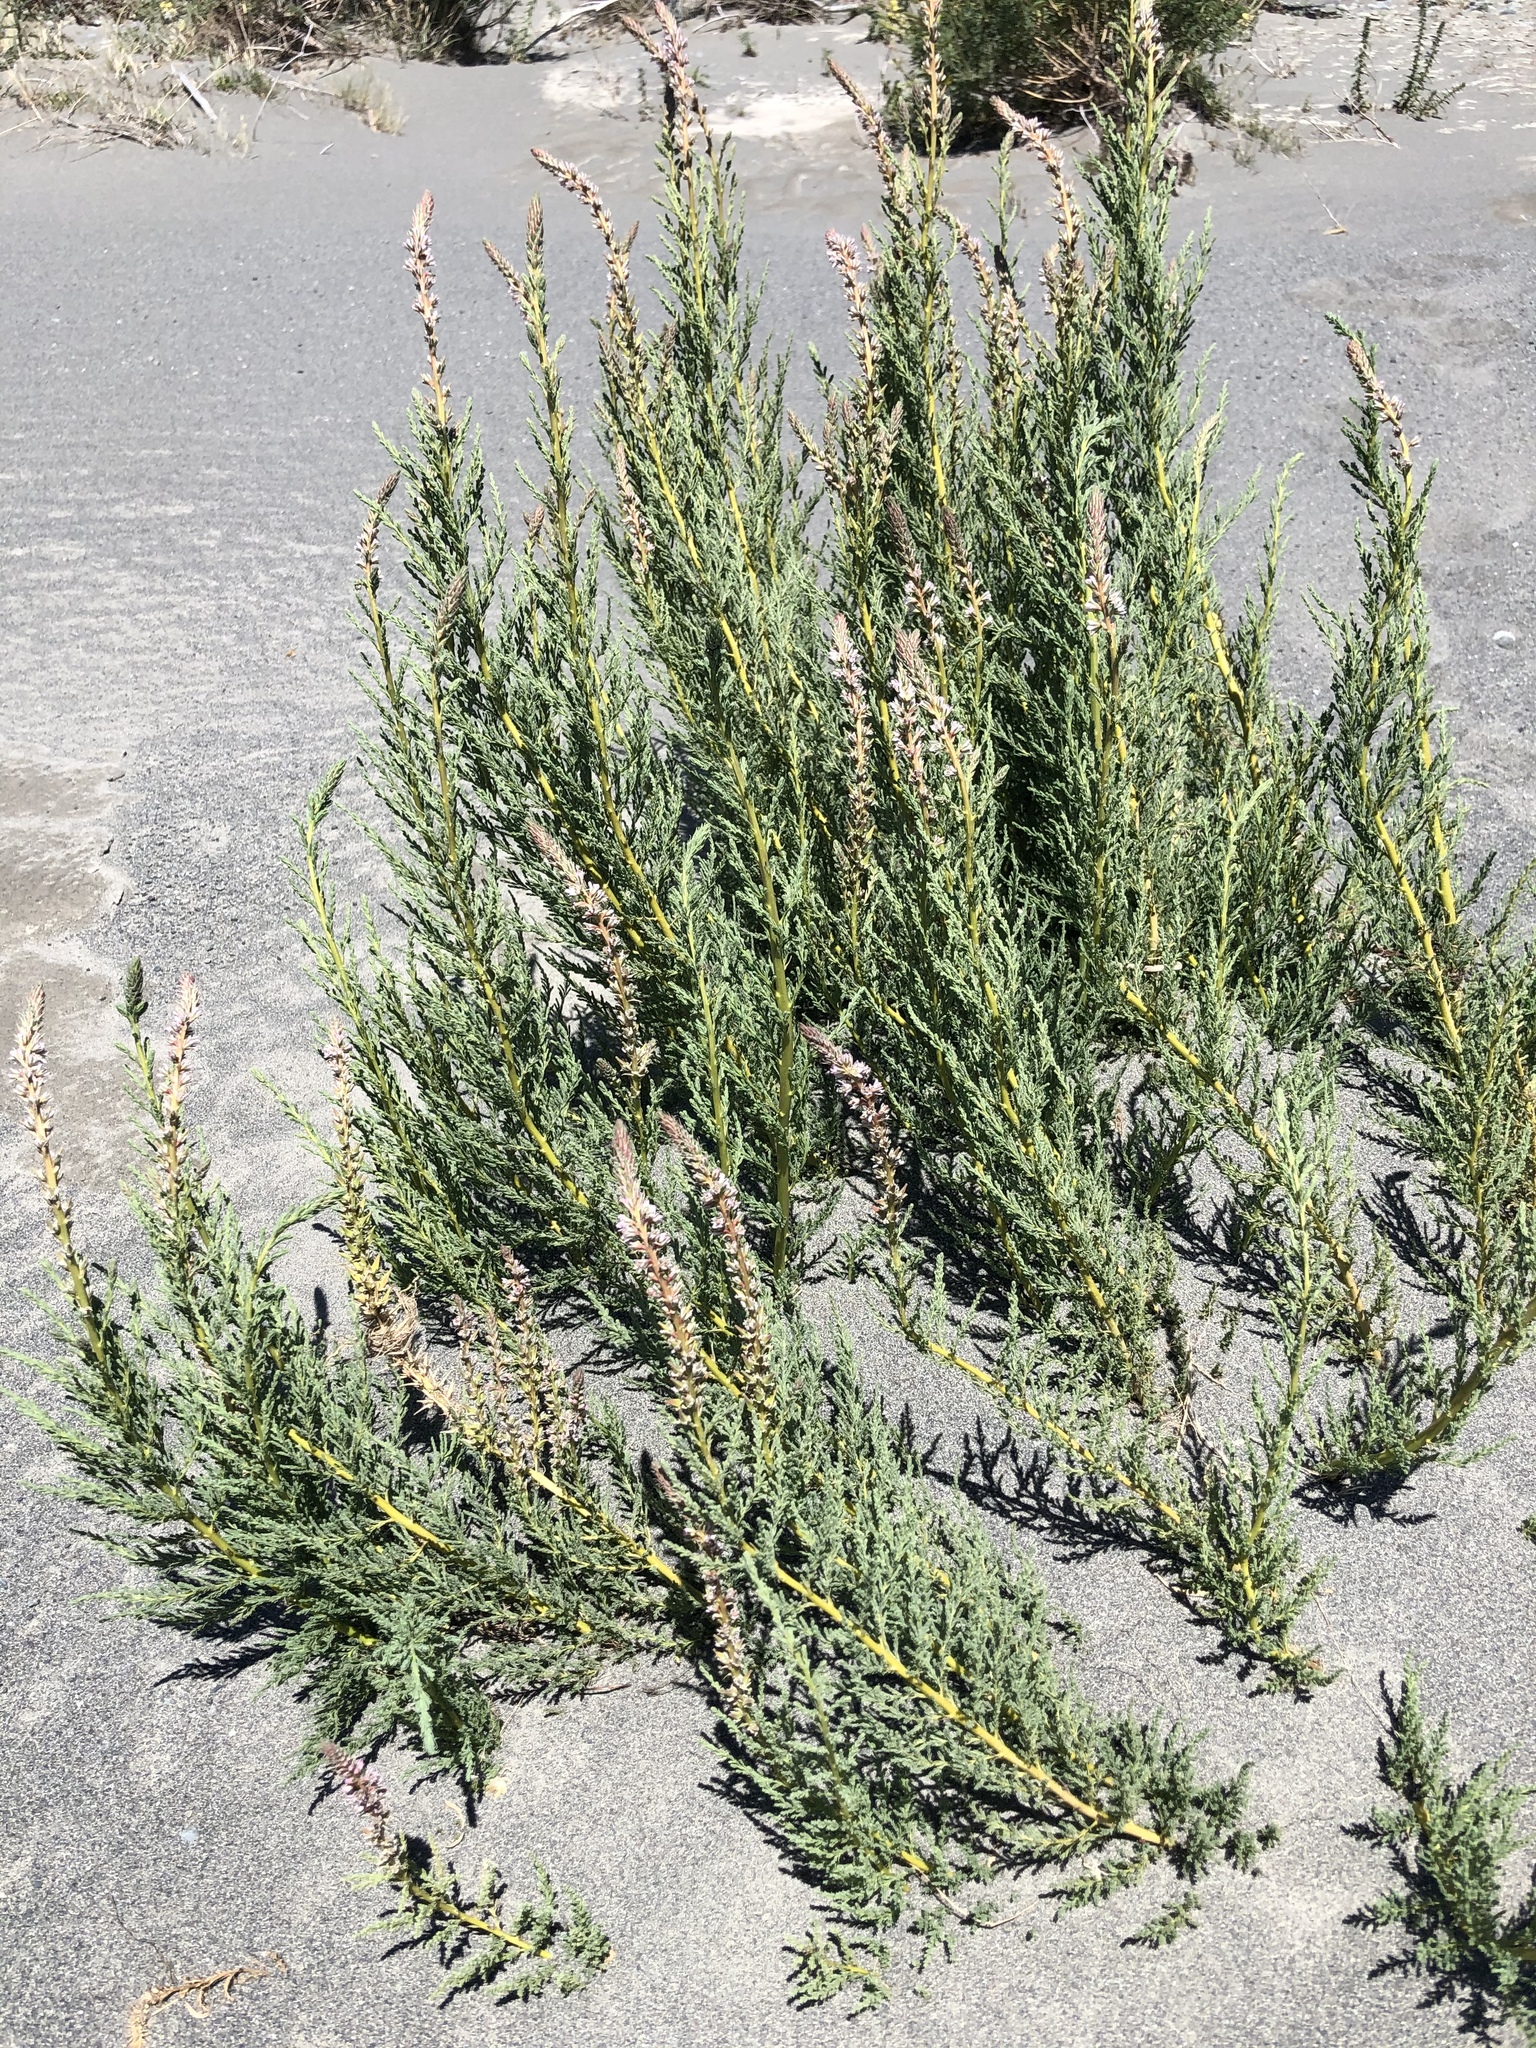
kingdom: Plantae
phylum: Tracheophyta
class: Magnoliopsida
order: Caryophyllales
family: Tamaricaceae
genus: Myricaria
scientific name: Myricaria germanica
